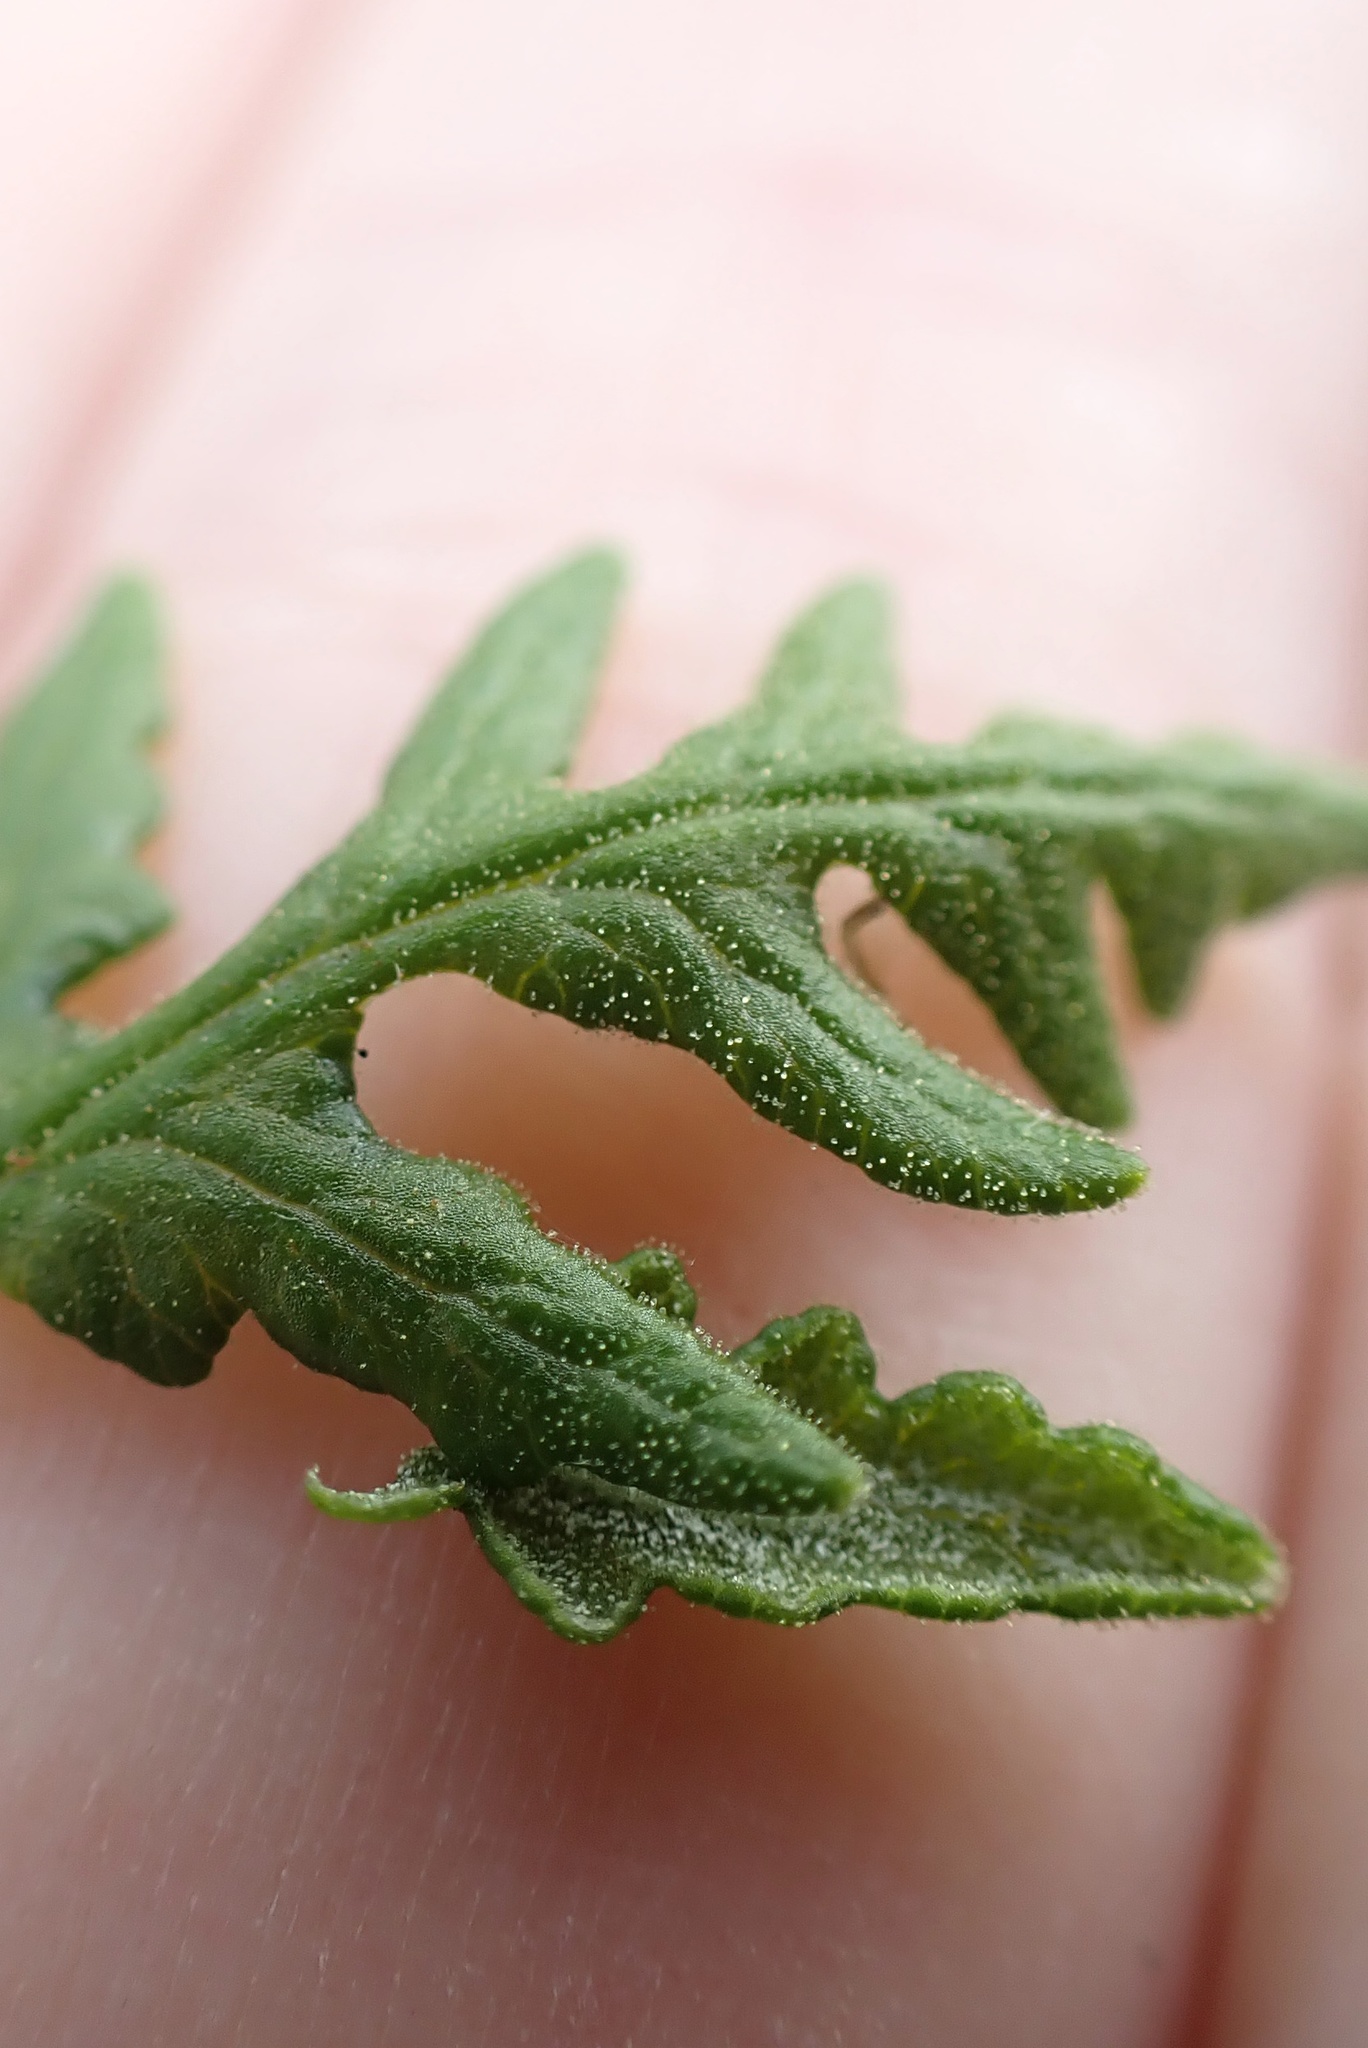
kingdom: Plantae
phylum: Tracheophyta
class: Polypodiopsida
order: Polypodiales
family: Pteridaceae
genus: Pentagramma
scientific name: Pentagramma glanduloviscida
